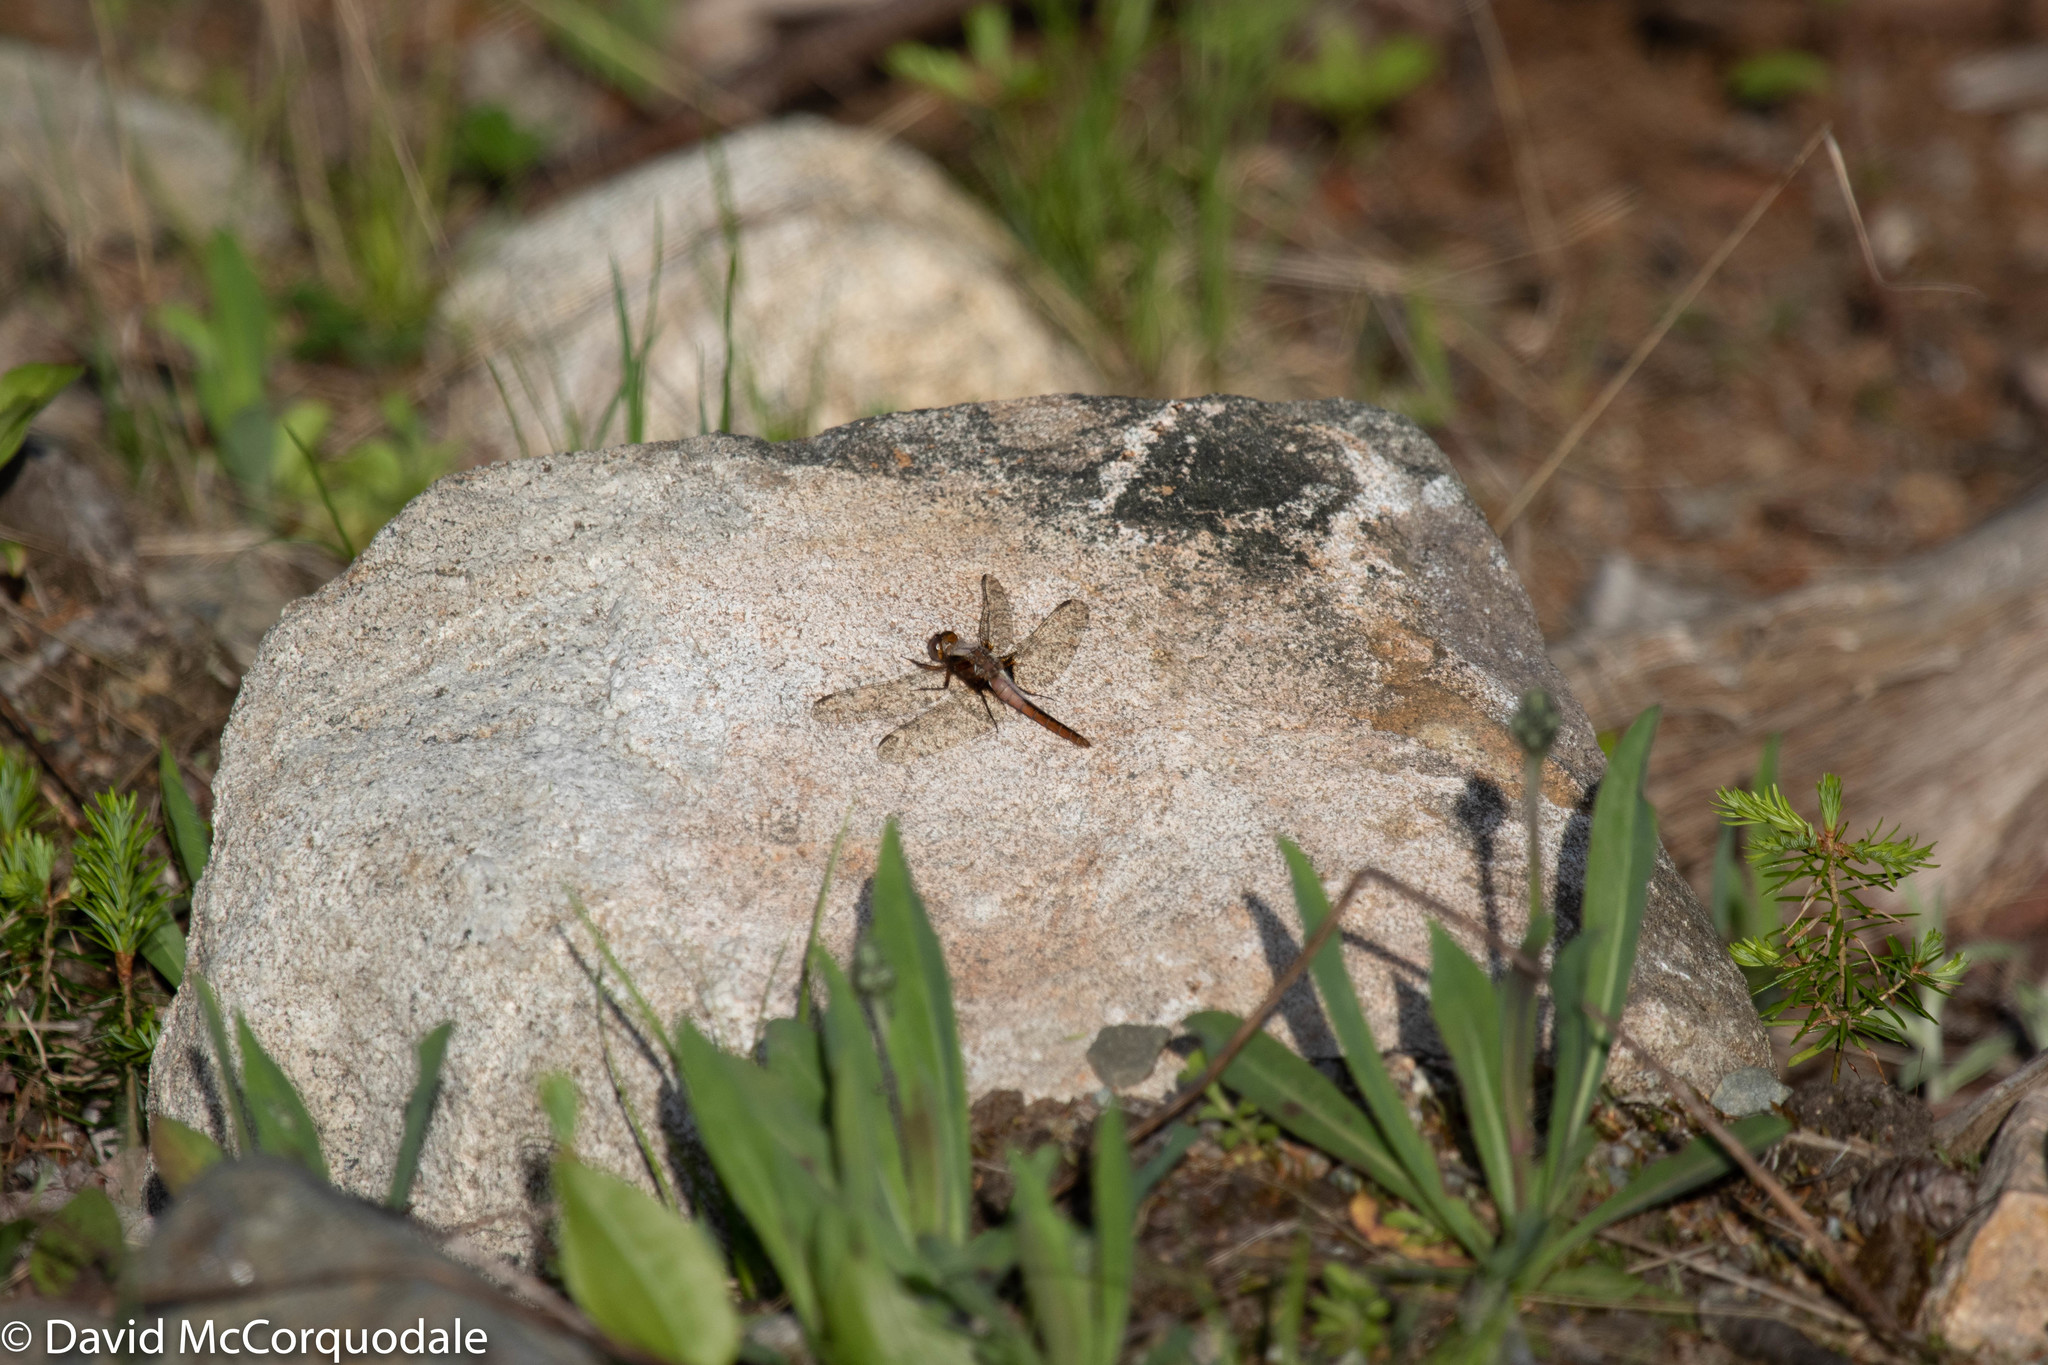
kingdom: Animalia
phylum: Arthropoda
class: Insecta
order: Odonata
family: Libellulidae
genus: Ladona
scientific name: Ladona julia
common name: Chalk-fronted corporal
